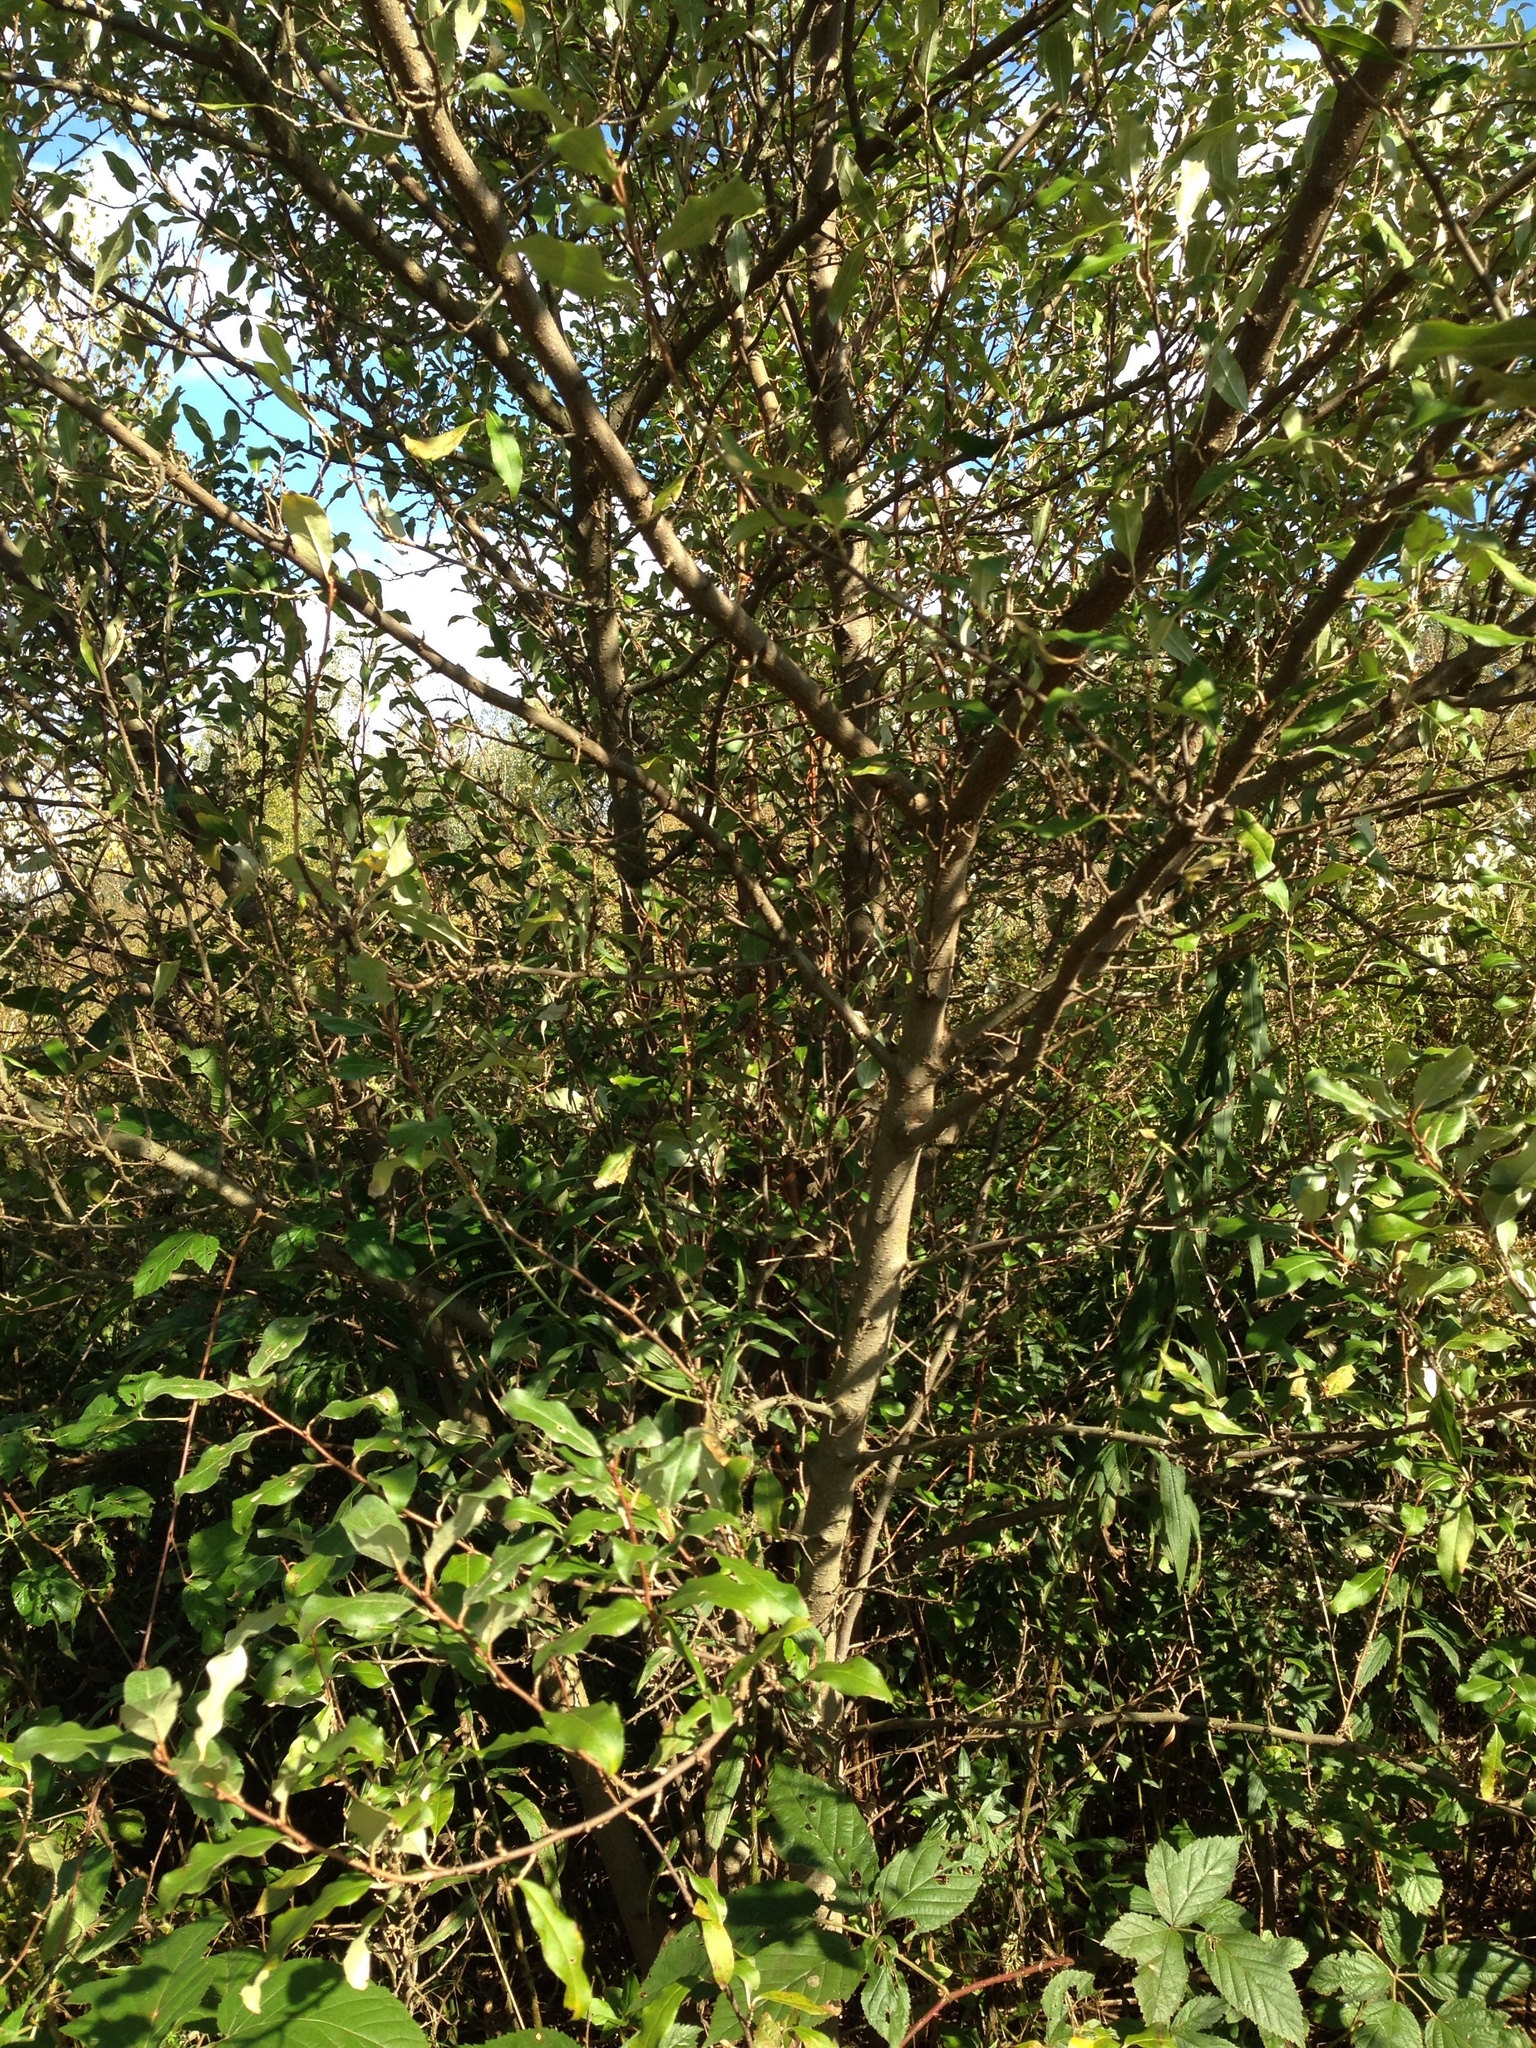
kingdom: Plantae
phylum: Tracheophyta
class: Magnoliopsida
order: Rosales
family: Elaeagnaceae
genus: Elaeagnus
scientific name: Elaeagnus umbellata
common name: Autumn olive
